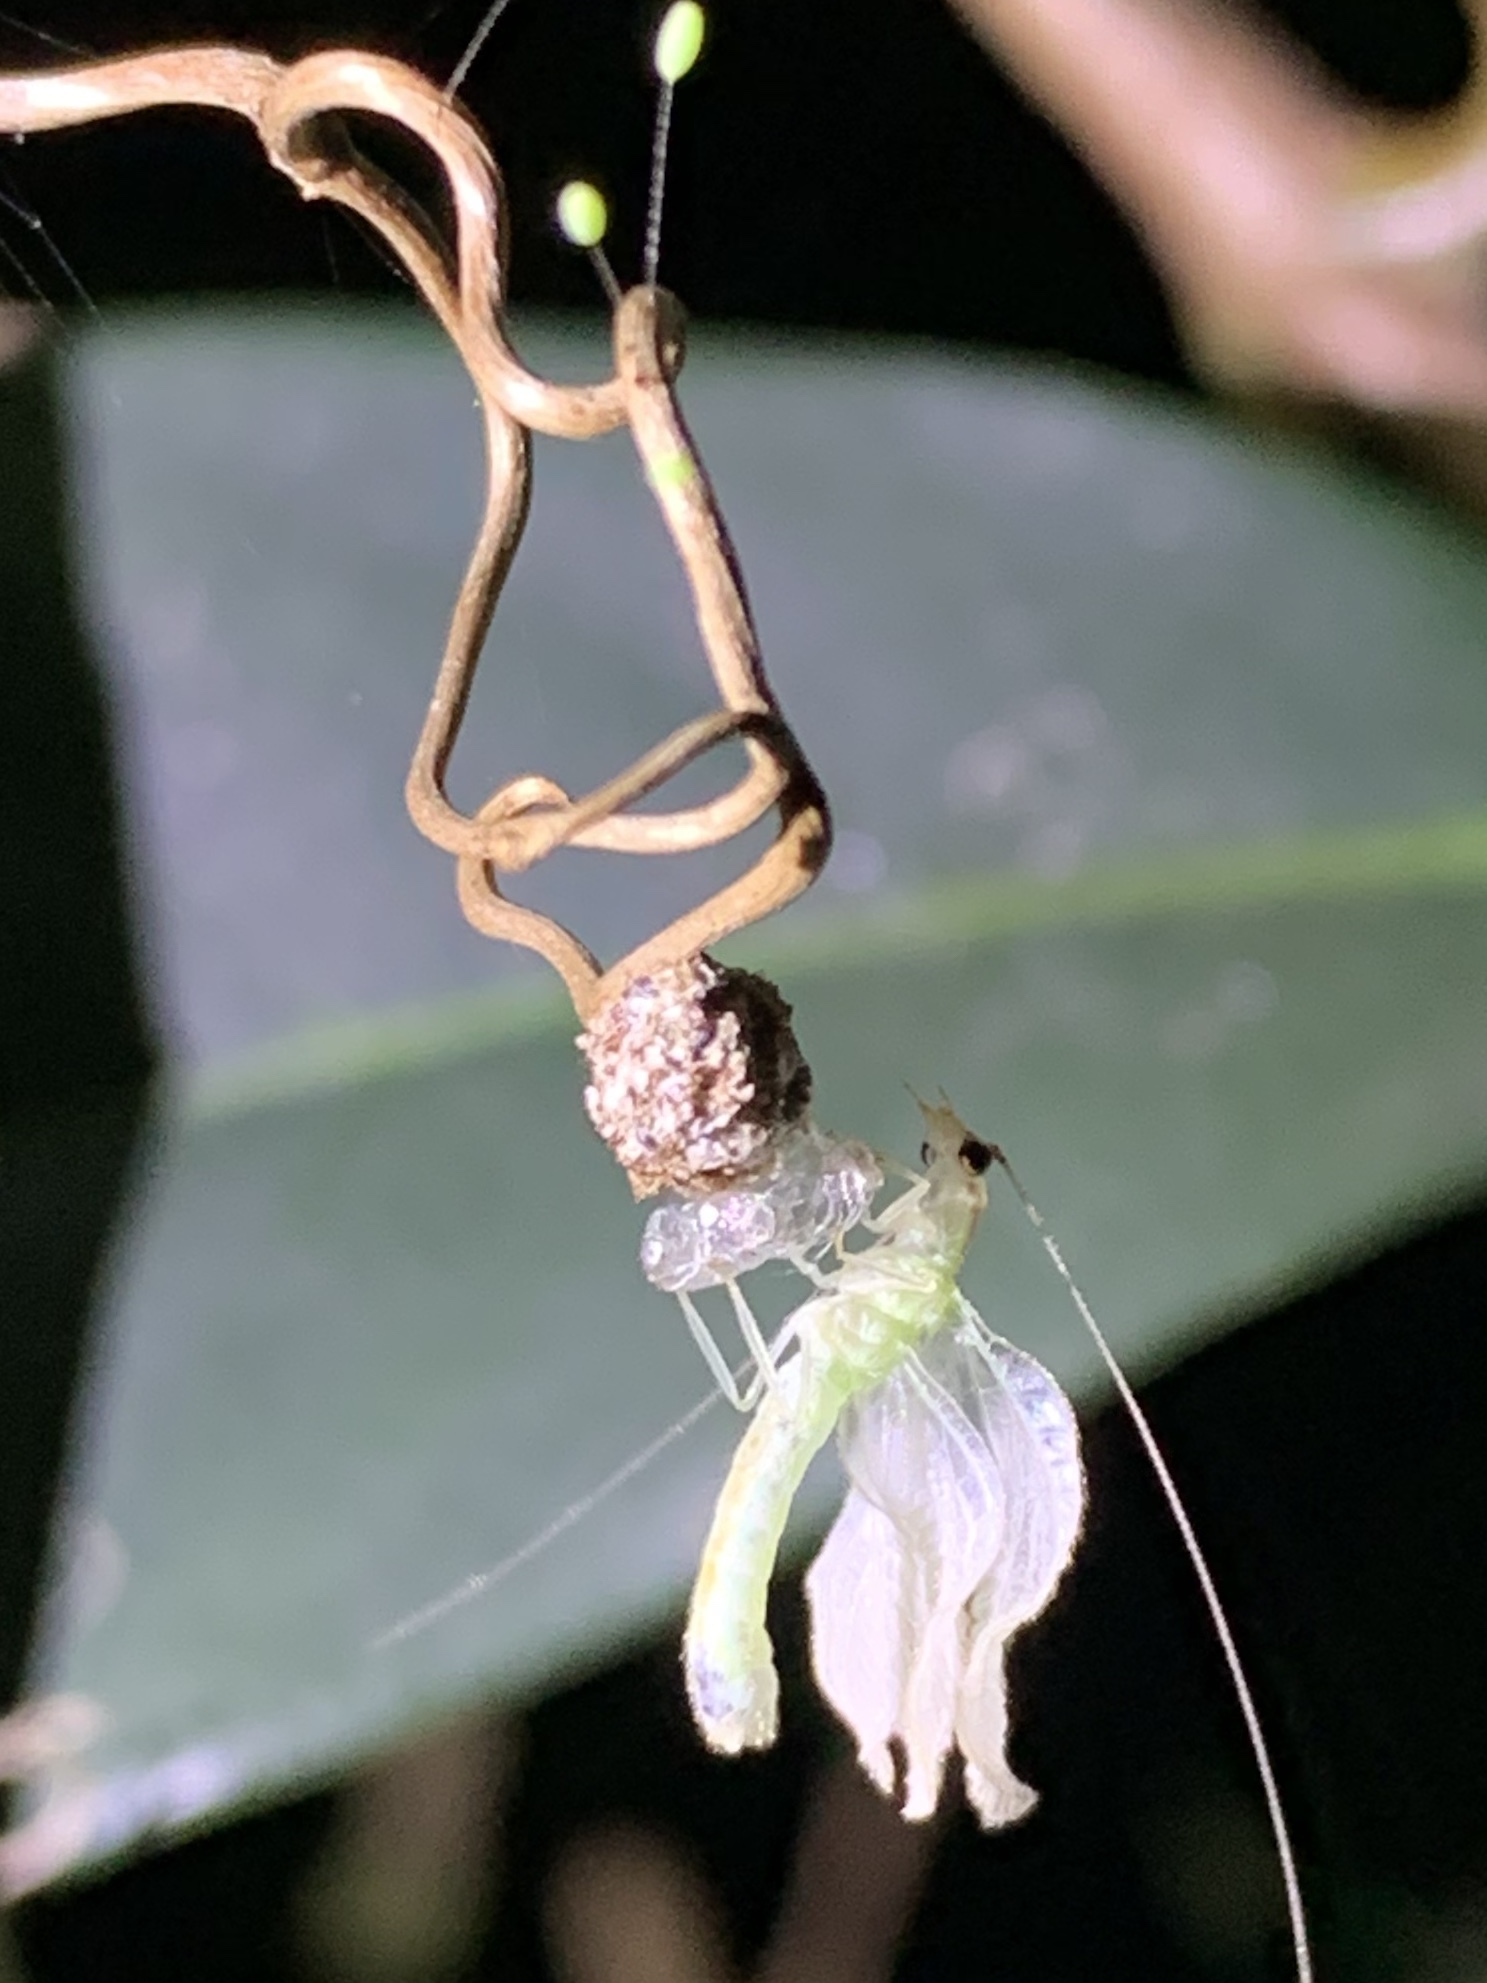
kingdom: Animalia
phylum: Arthropoda
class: Insecta
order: Neuroptera
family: Chrysopidae
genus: Ceraeochrysa
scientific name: Ceraeochrysa smithi
